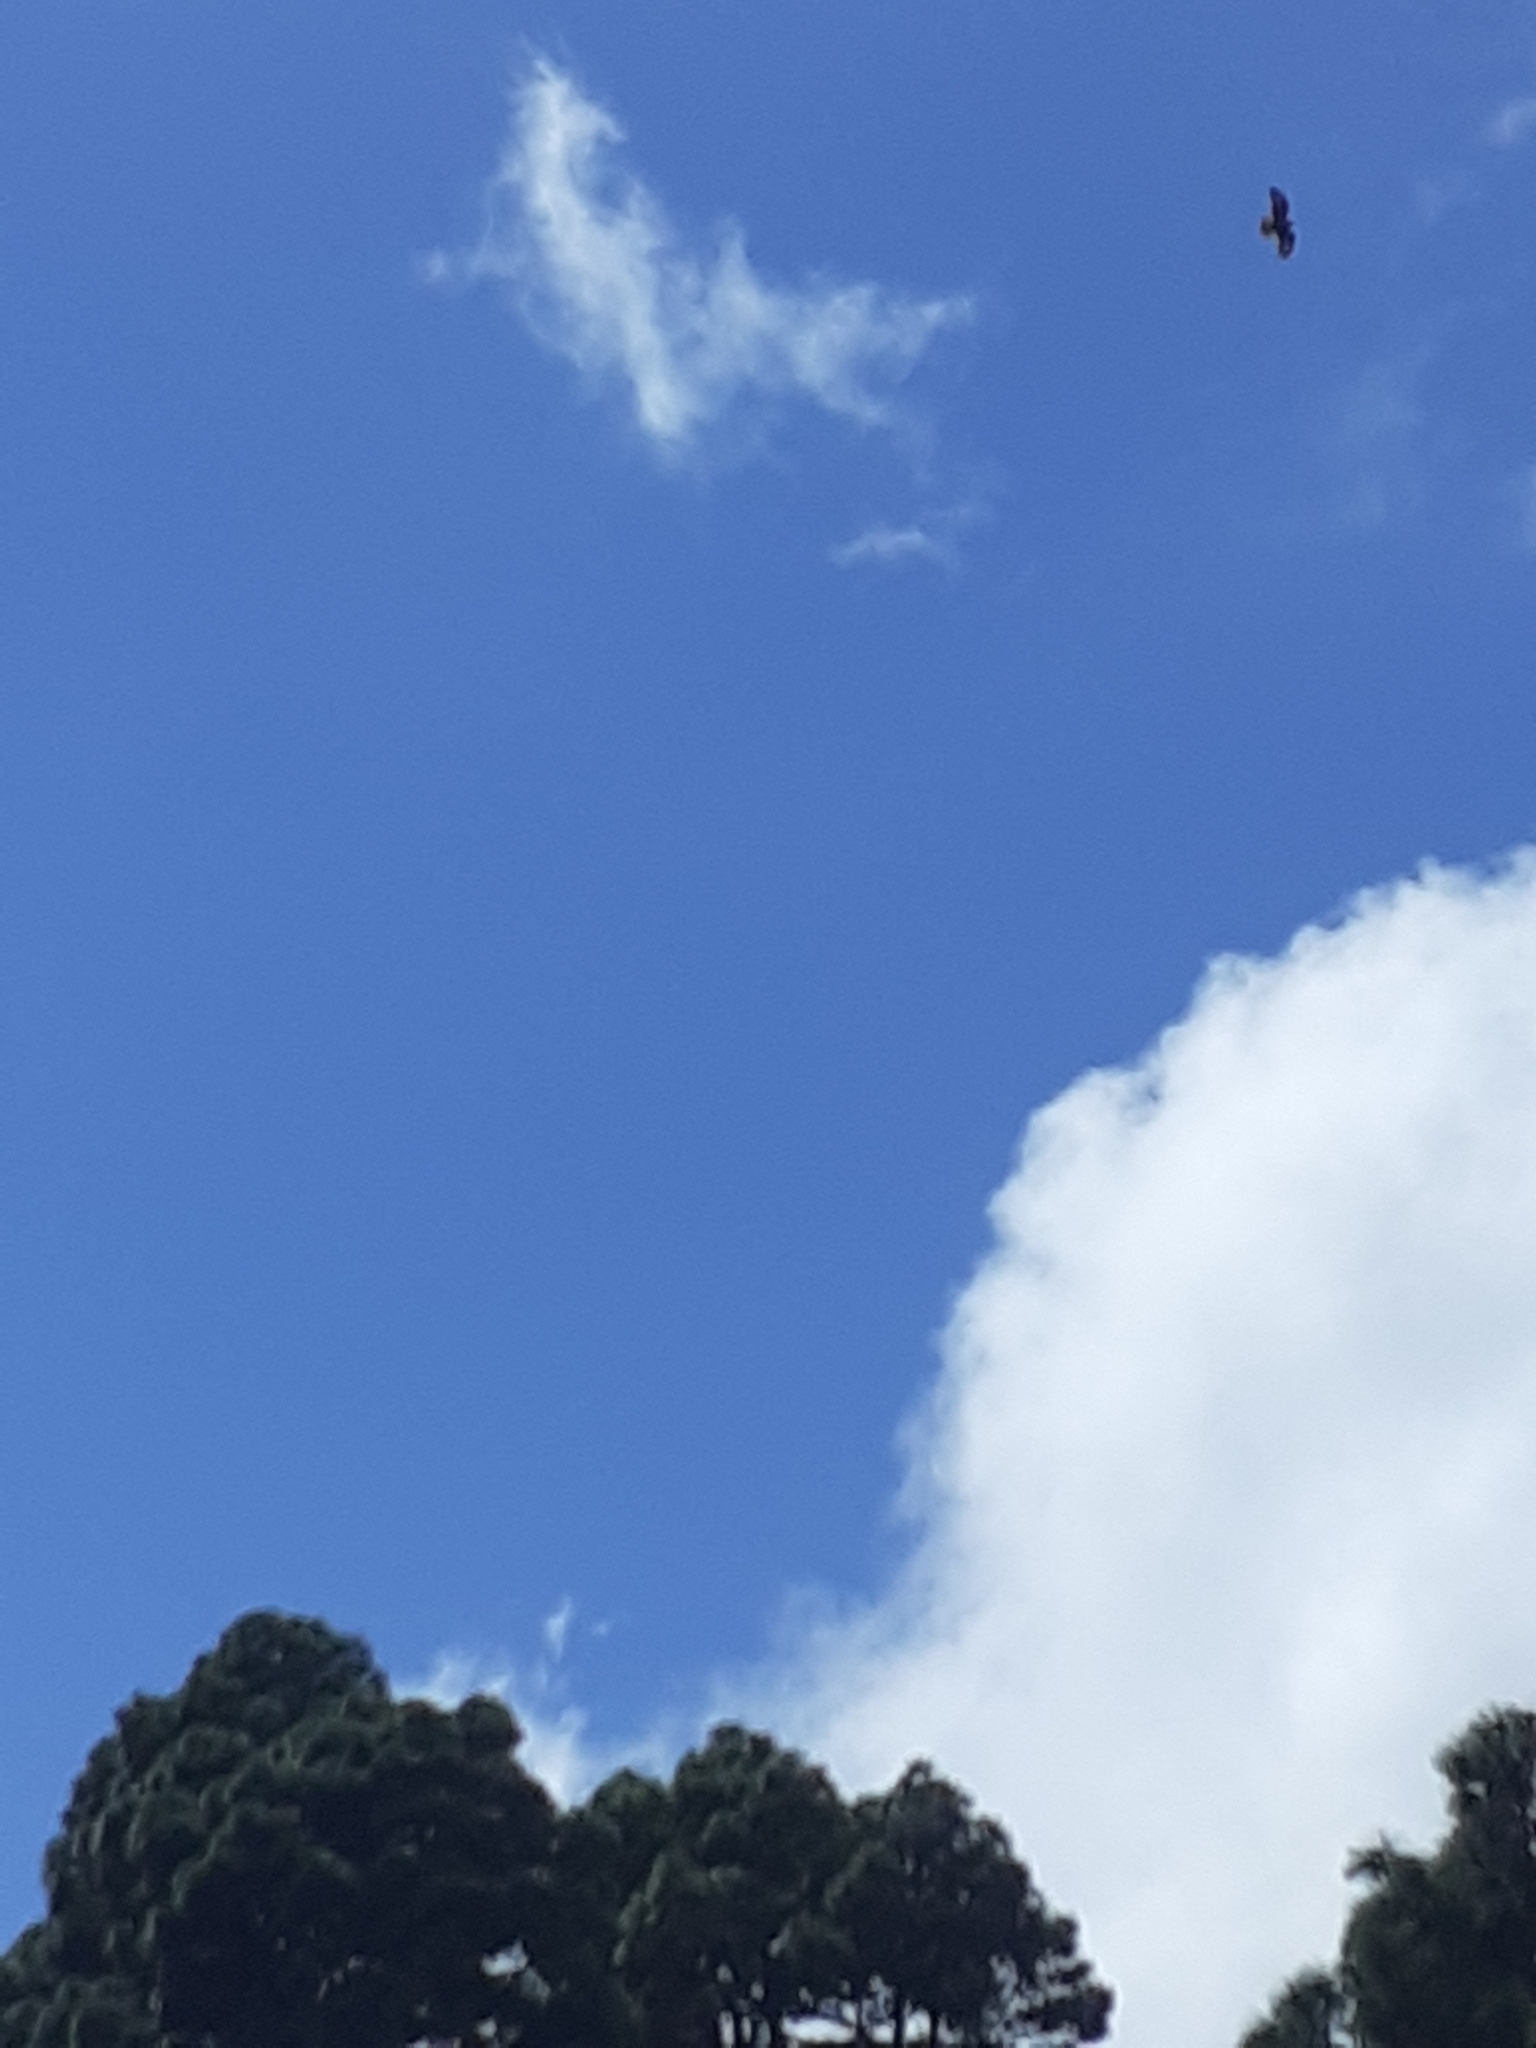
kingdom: Animalia
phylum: Chordata
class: Aves
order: Accipitriformes
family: Accipitridae
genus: Buteo
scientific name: Buteo buteo
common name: Common buzzard
